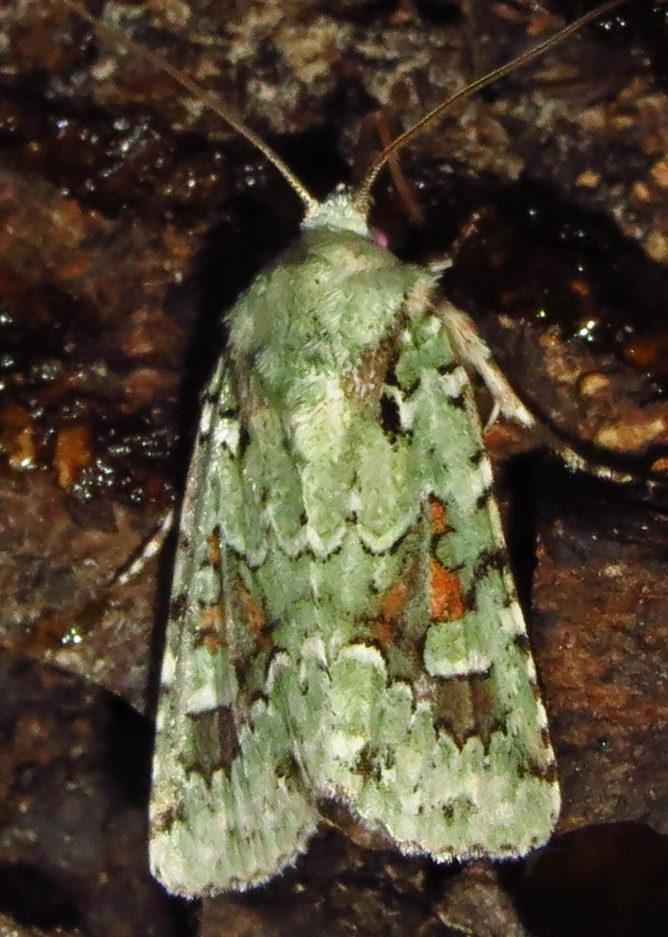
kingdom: Animalia
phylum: Arthropoda
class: Insecta
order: Lepidoptera
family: Noctuidae
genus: Lacinipolia
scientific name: Lacinipolia laudabilis
